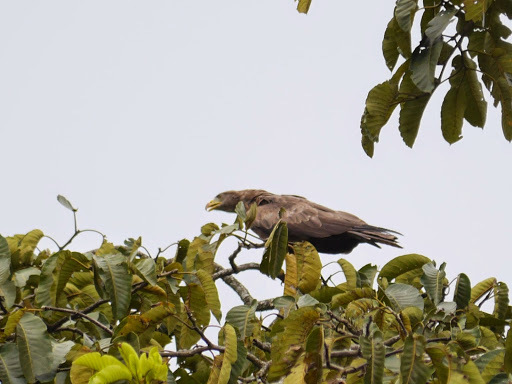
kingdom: Animalia
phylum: Chordata
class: Aves
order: Accipitriformes
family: Accipitridae
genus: Milvus
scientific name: Milvus migrans
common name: Black kite
